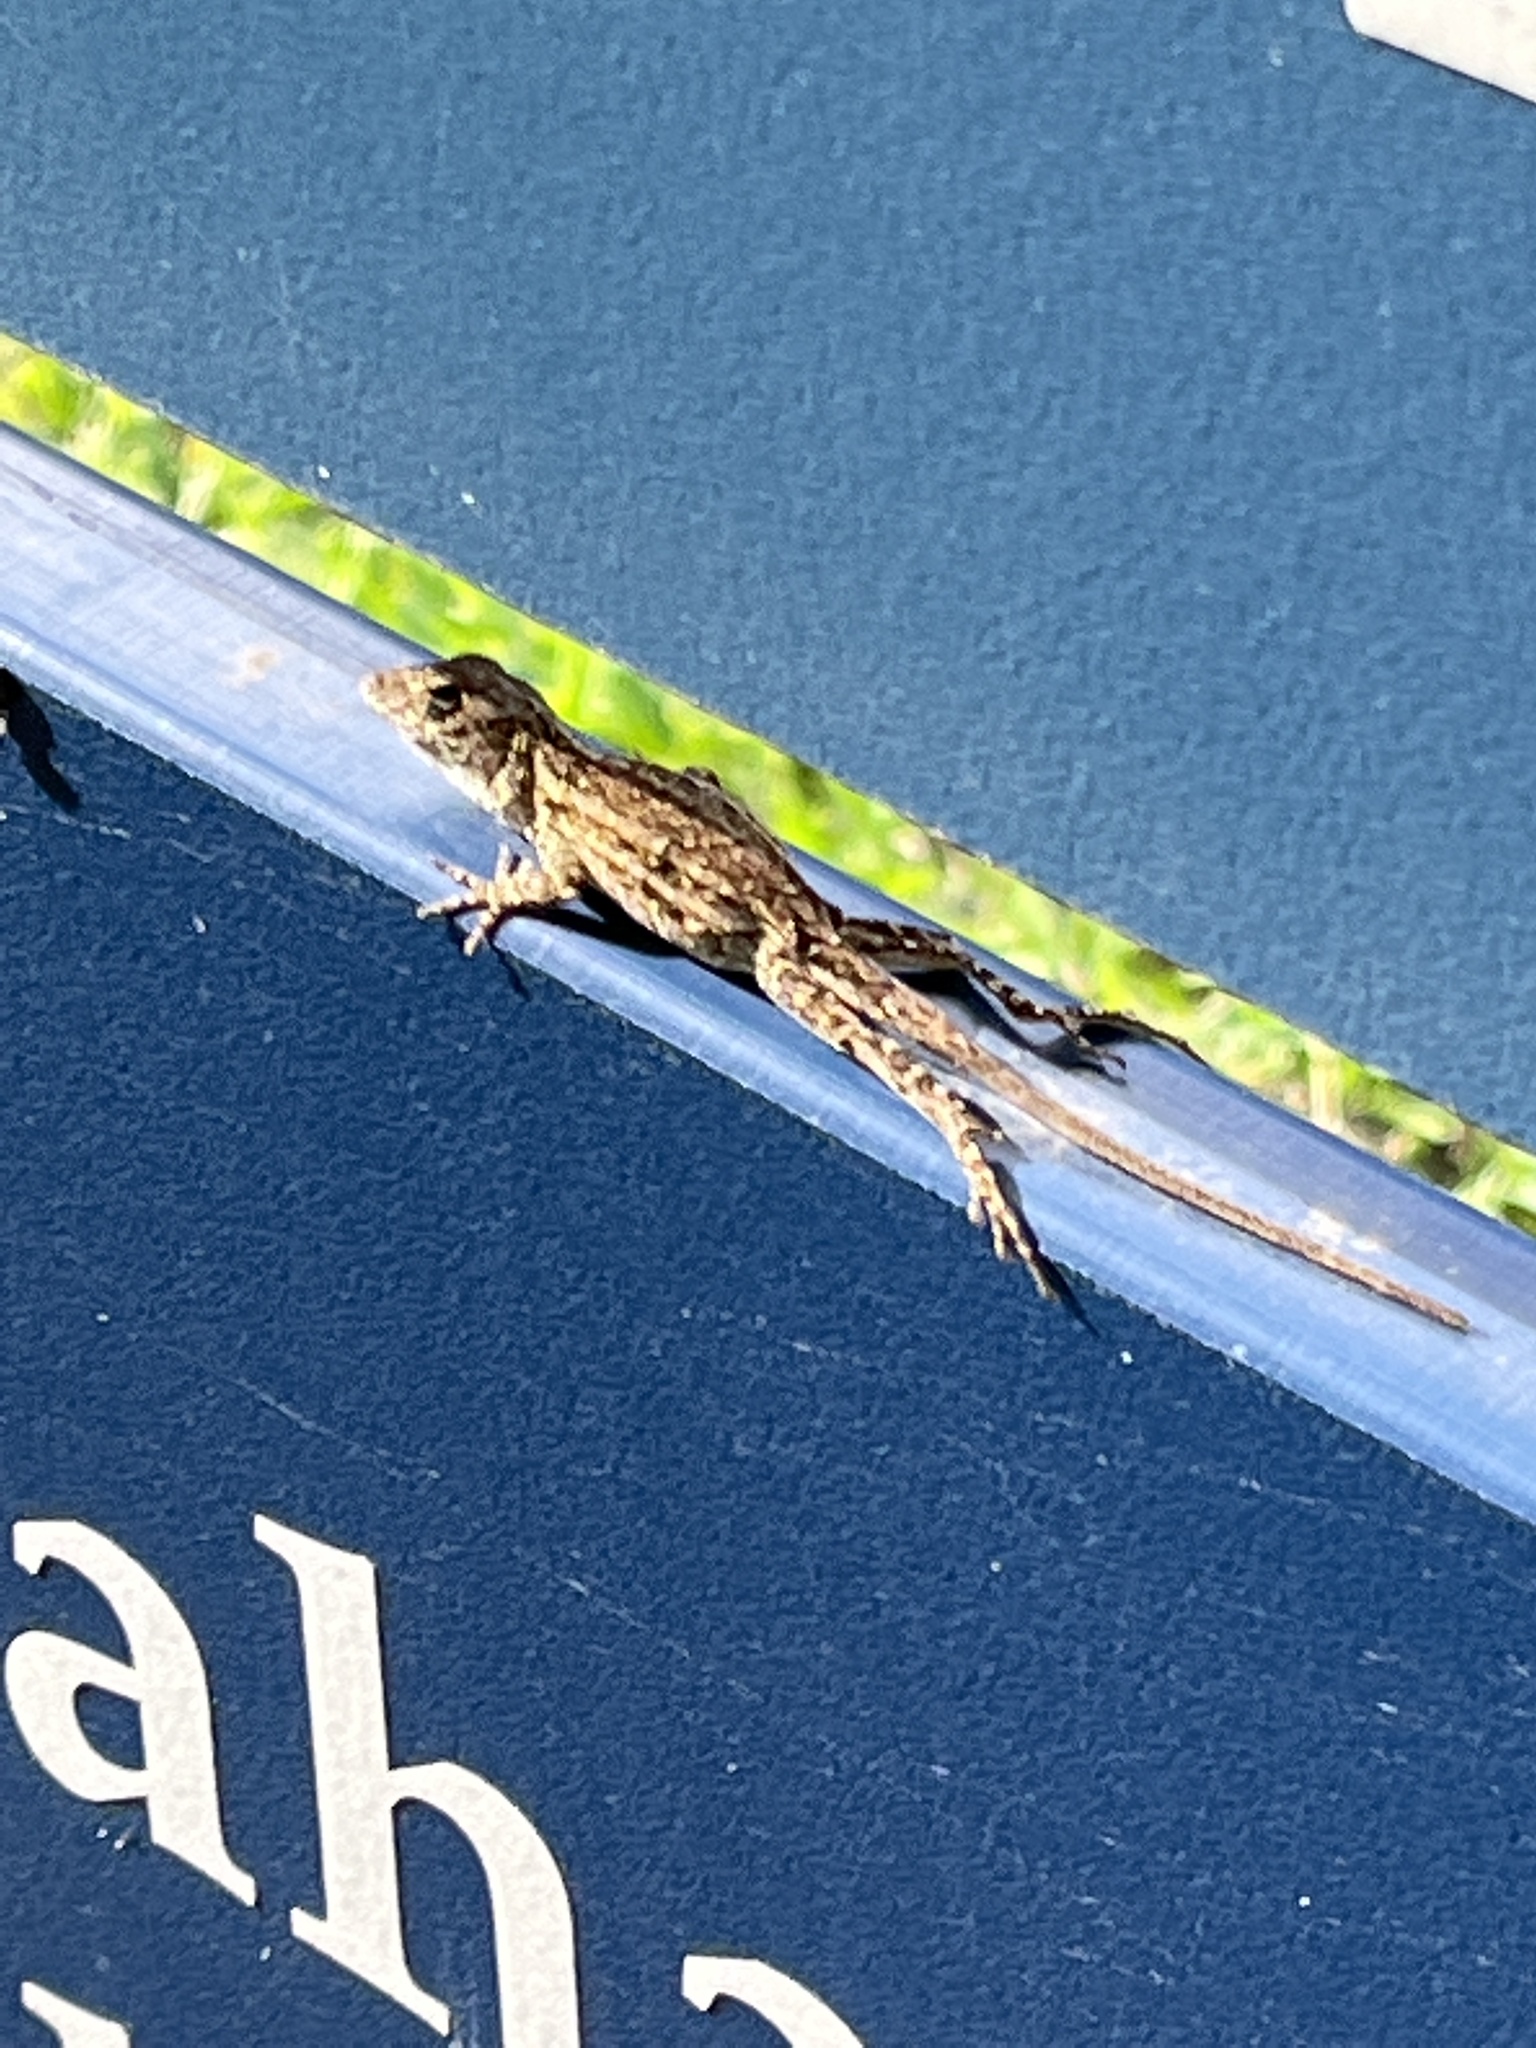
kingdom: Animalia
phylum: Chordata
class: Squamata
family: Dactyloidae
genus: Anolis
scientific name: Anolis sagrei
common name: Brown anole
